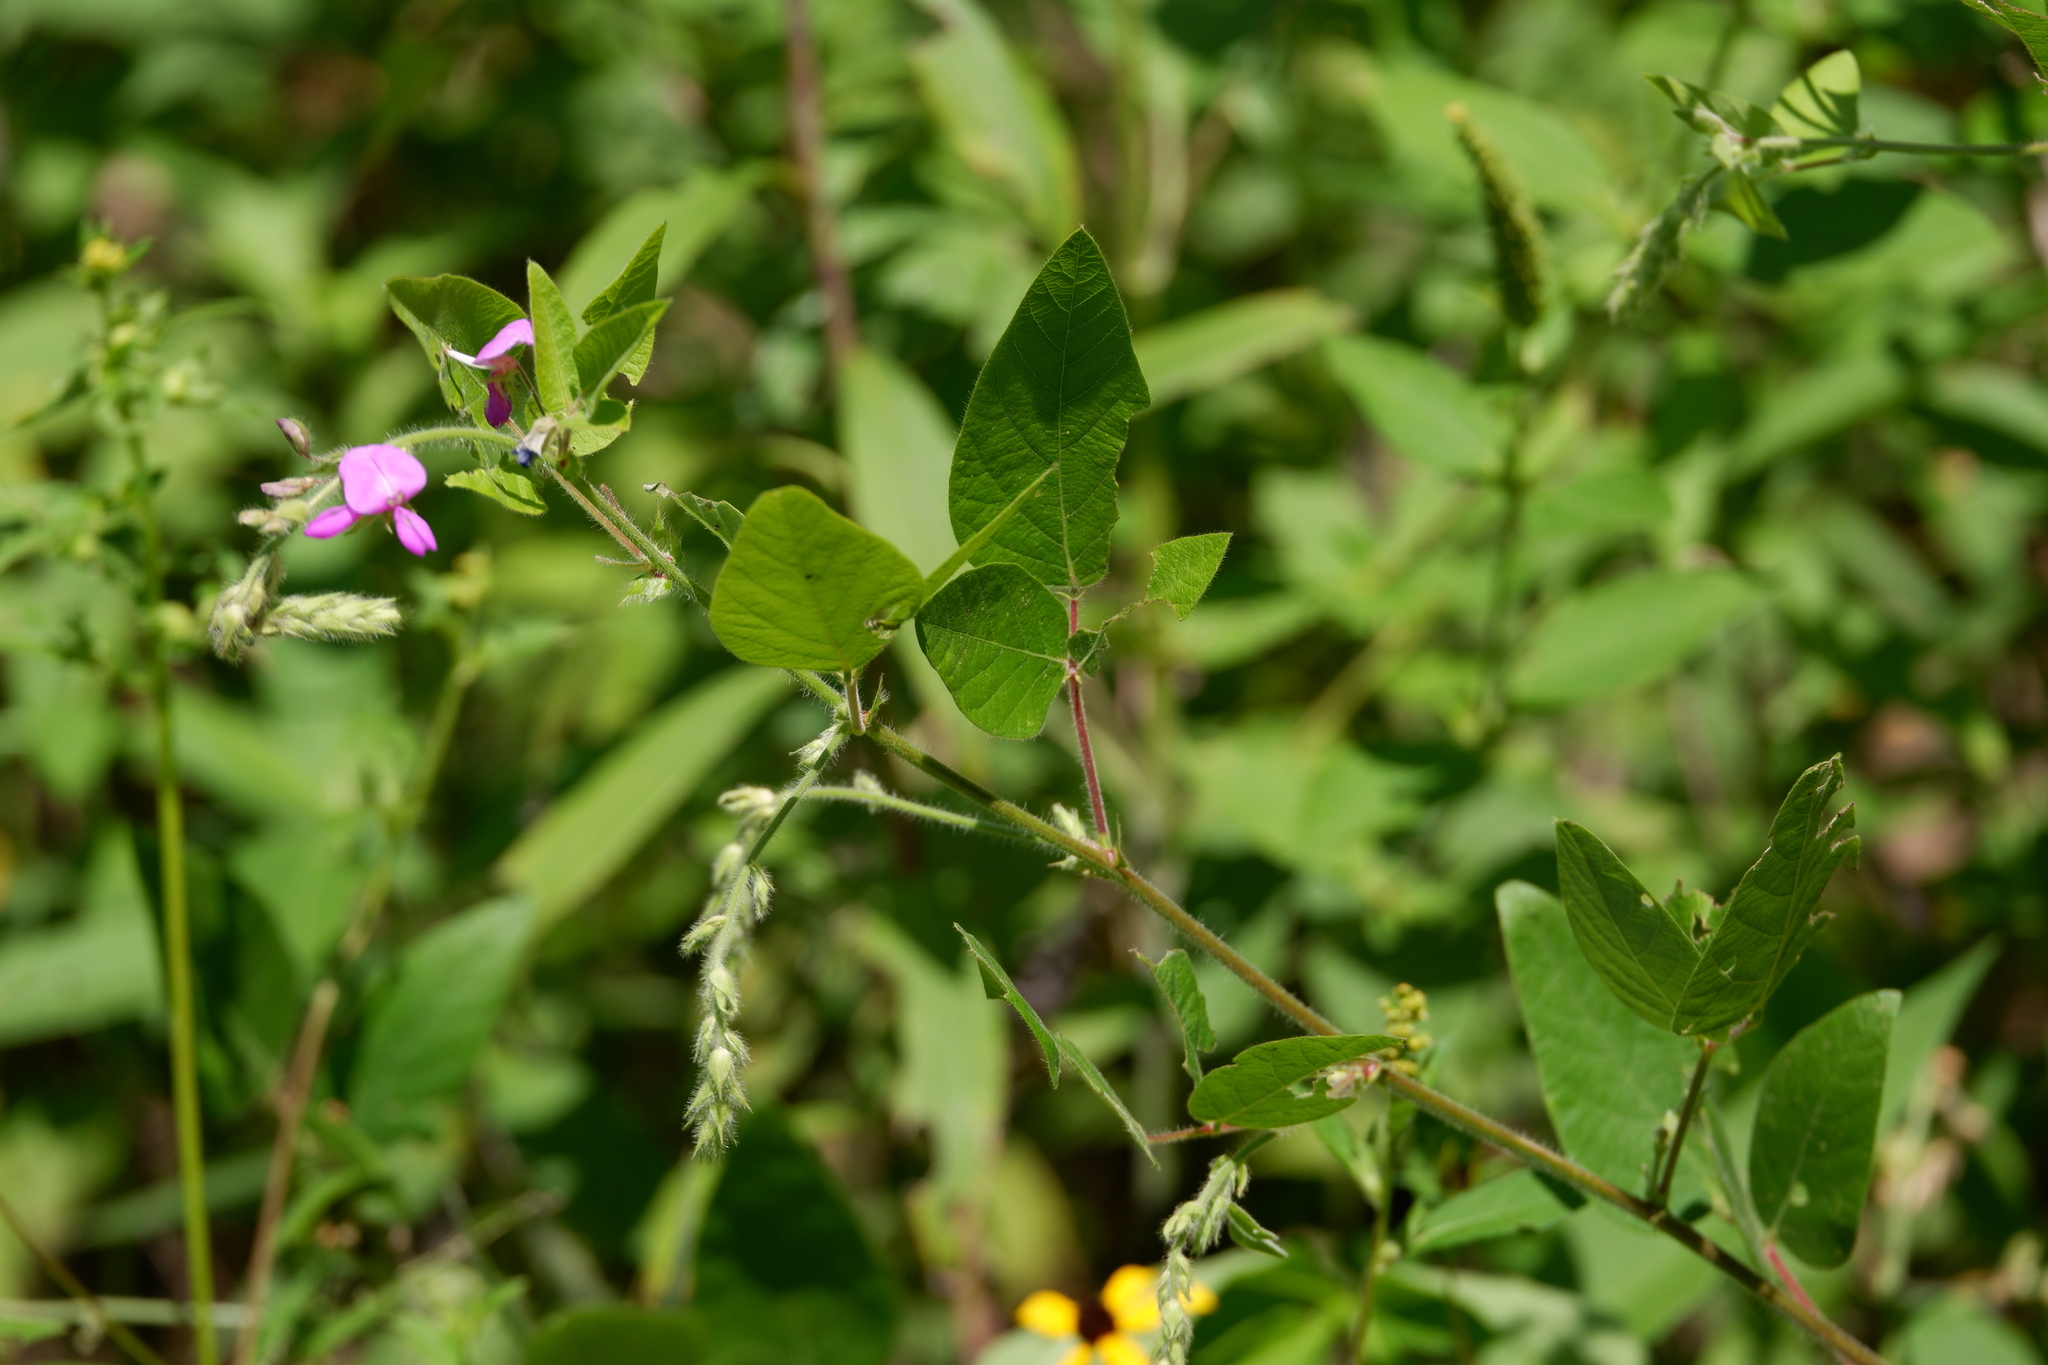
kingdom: Plantae
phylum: Tracheophyta
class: Magnoliopsida
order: Fabales
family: Fabaceae
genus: Desmodium
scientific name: Desmodium canescens
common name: Hoary tick-clover
